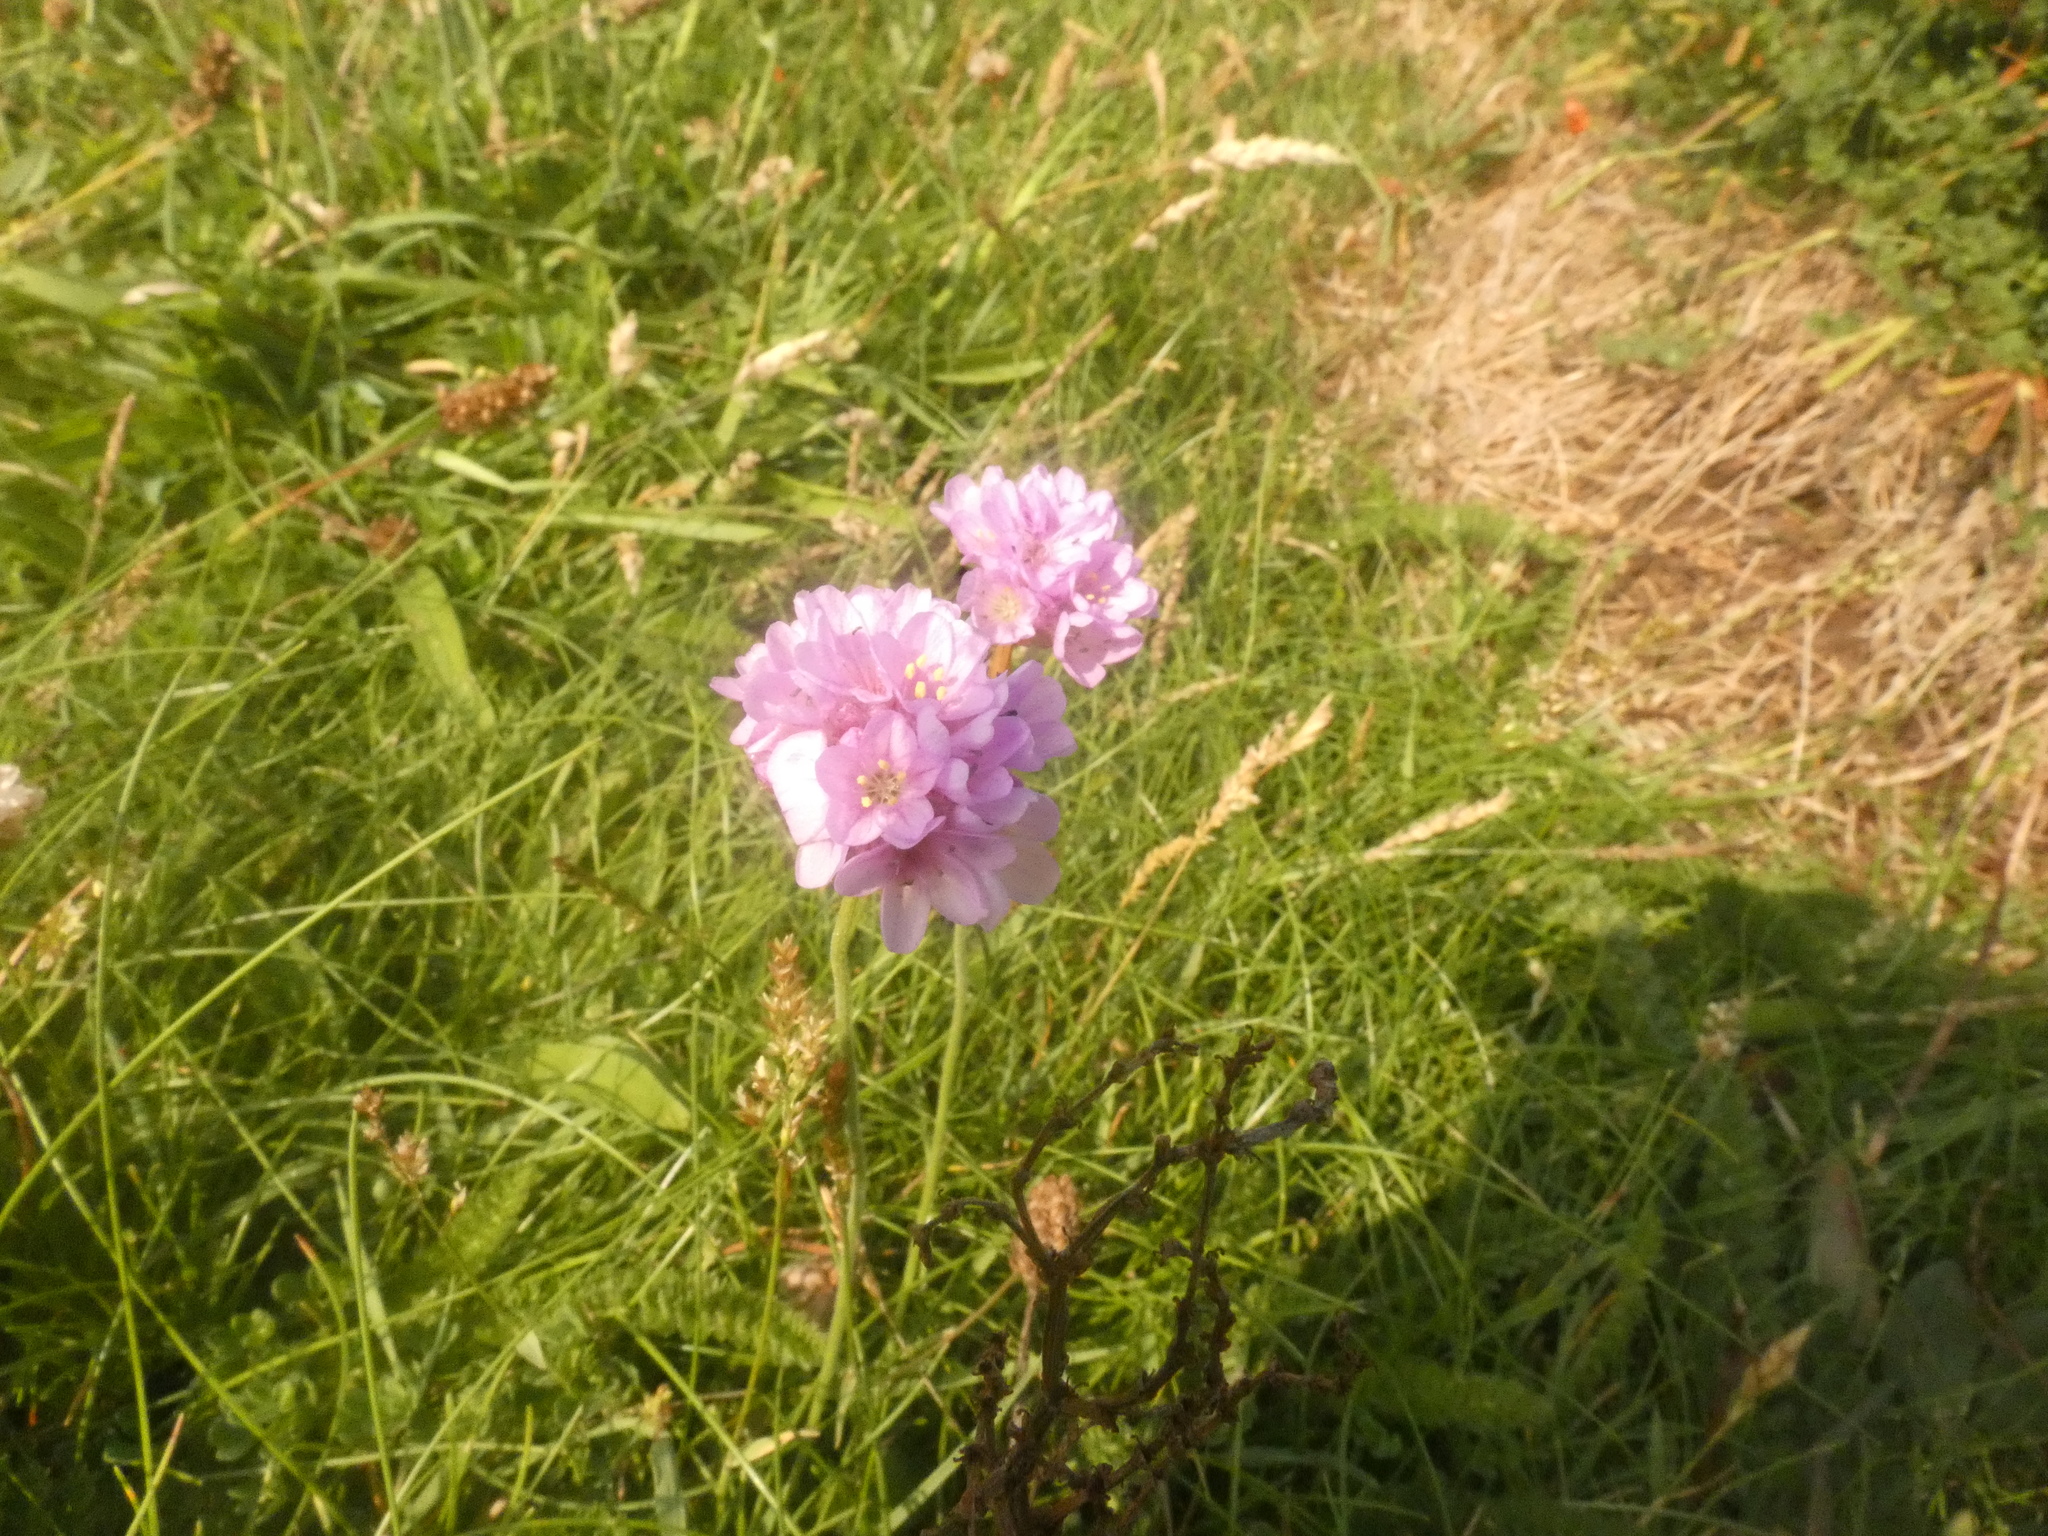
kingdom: Plantae
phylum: Tracheophyta
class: Magnoliopsida
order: Caryophyllales
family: Plumbaginaceae
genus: Armeria
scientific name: Armeria maritima
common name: Thrift
